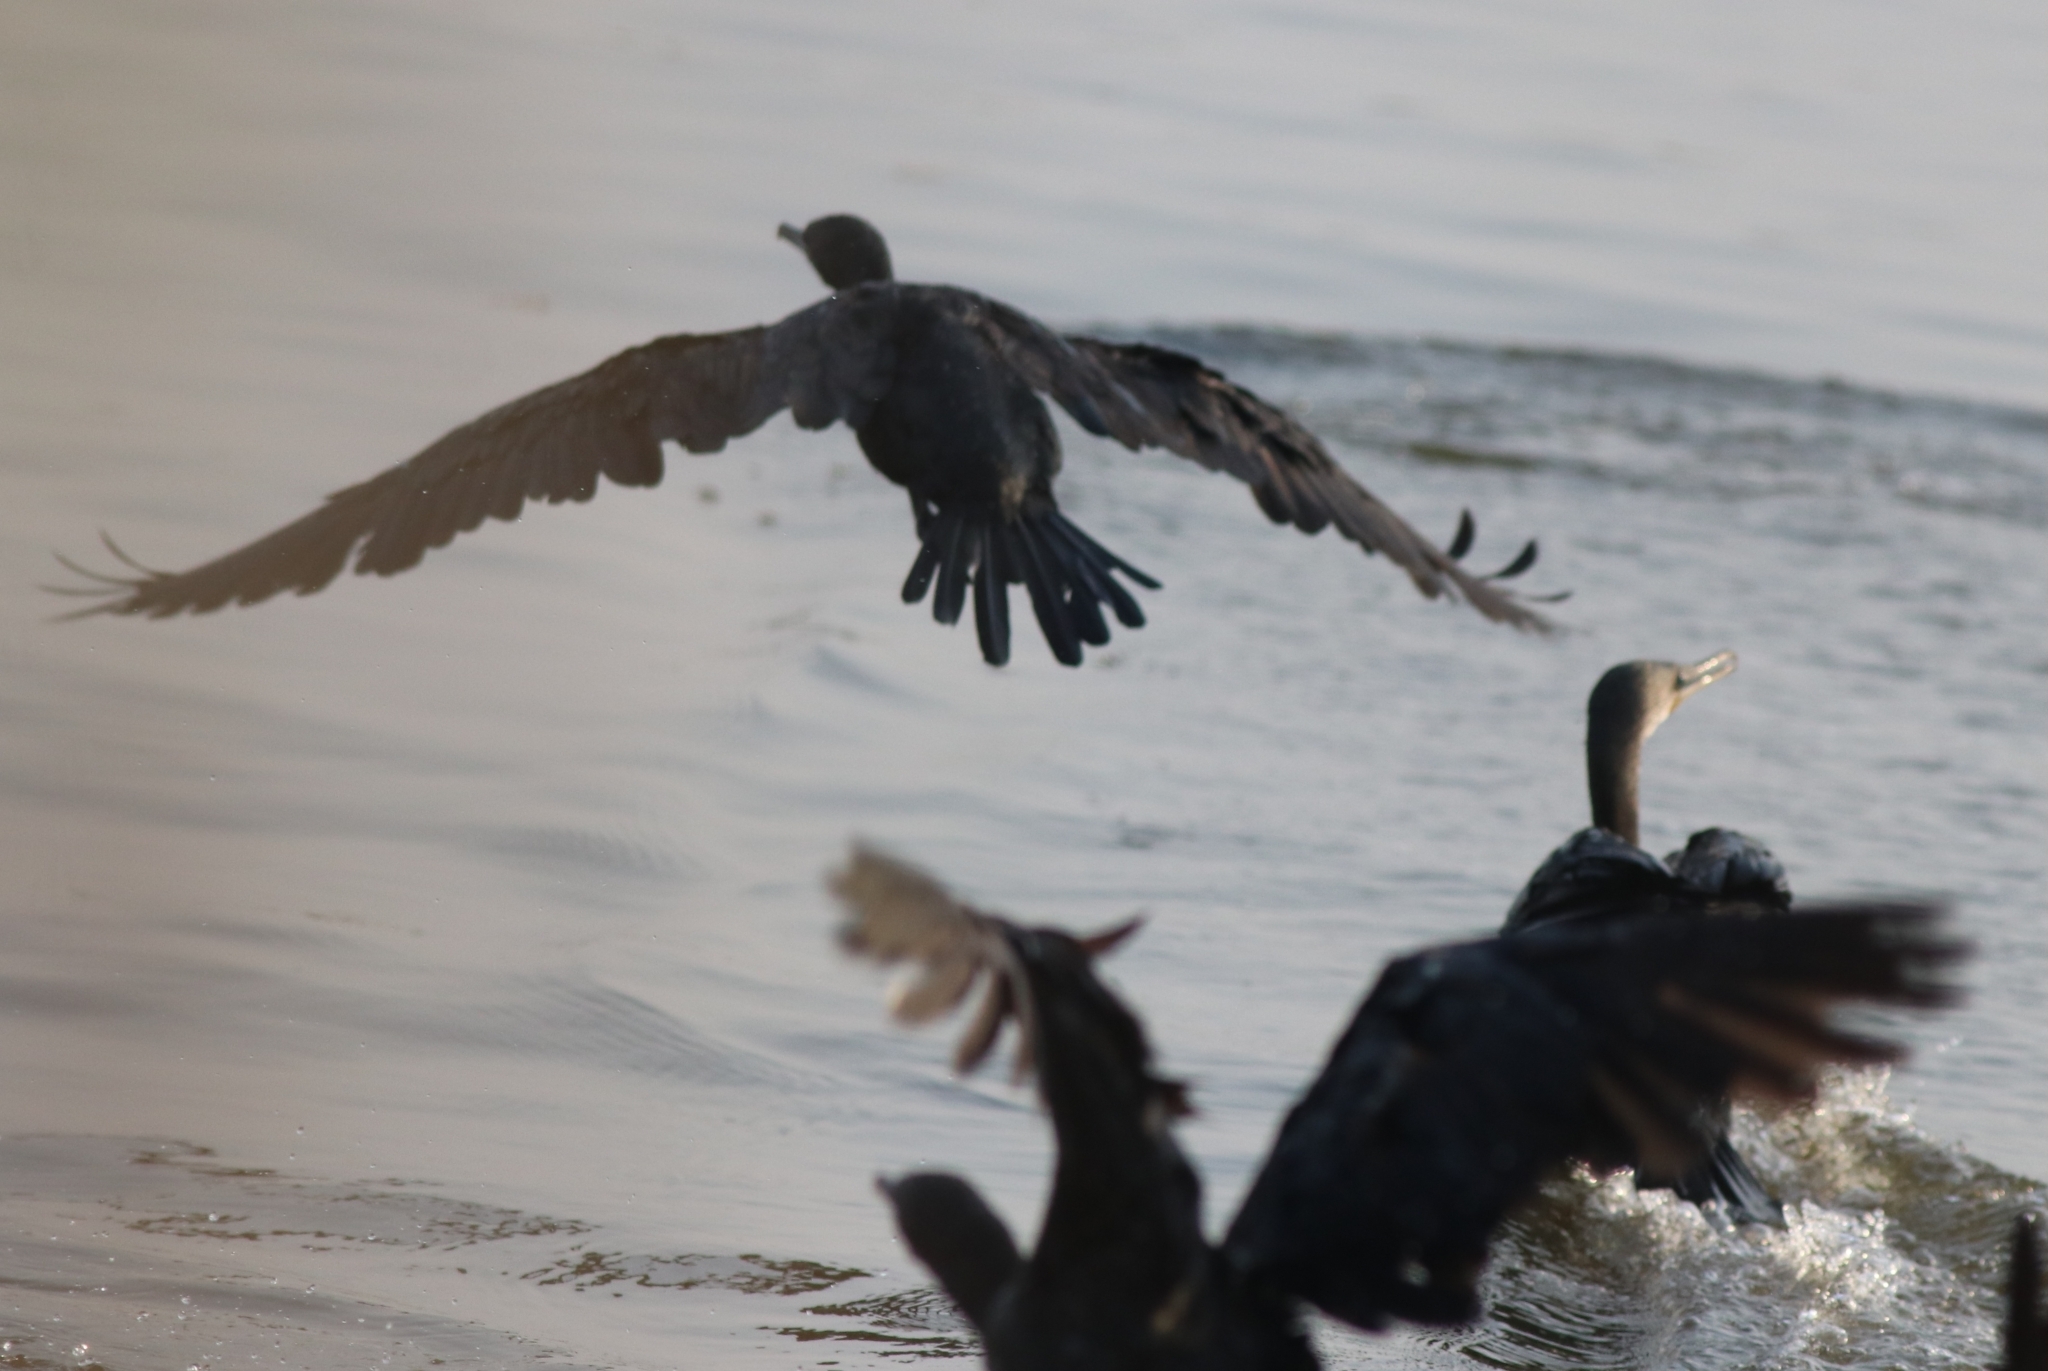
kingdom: Animalia
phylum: Chordata
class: Aves
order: Suliformes
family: Phalacrocoracidae
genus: Microcarbo
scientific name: Microcarbo niger
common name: Little cormorant
